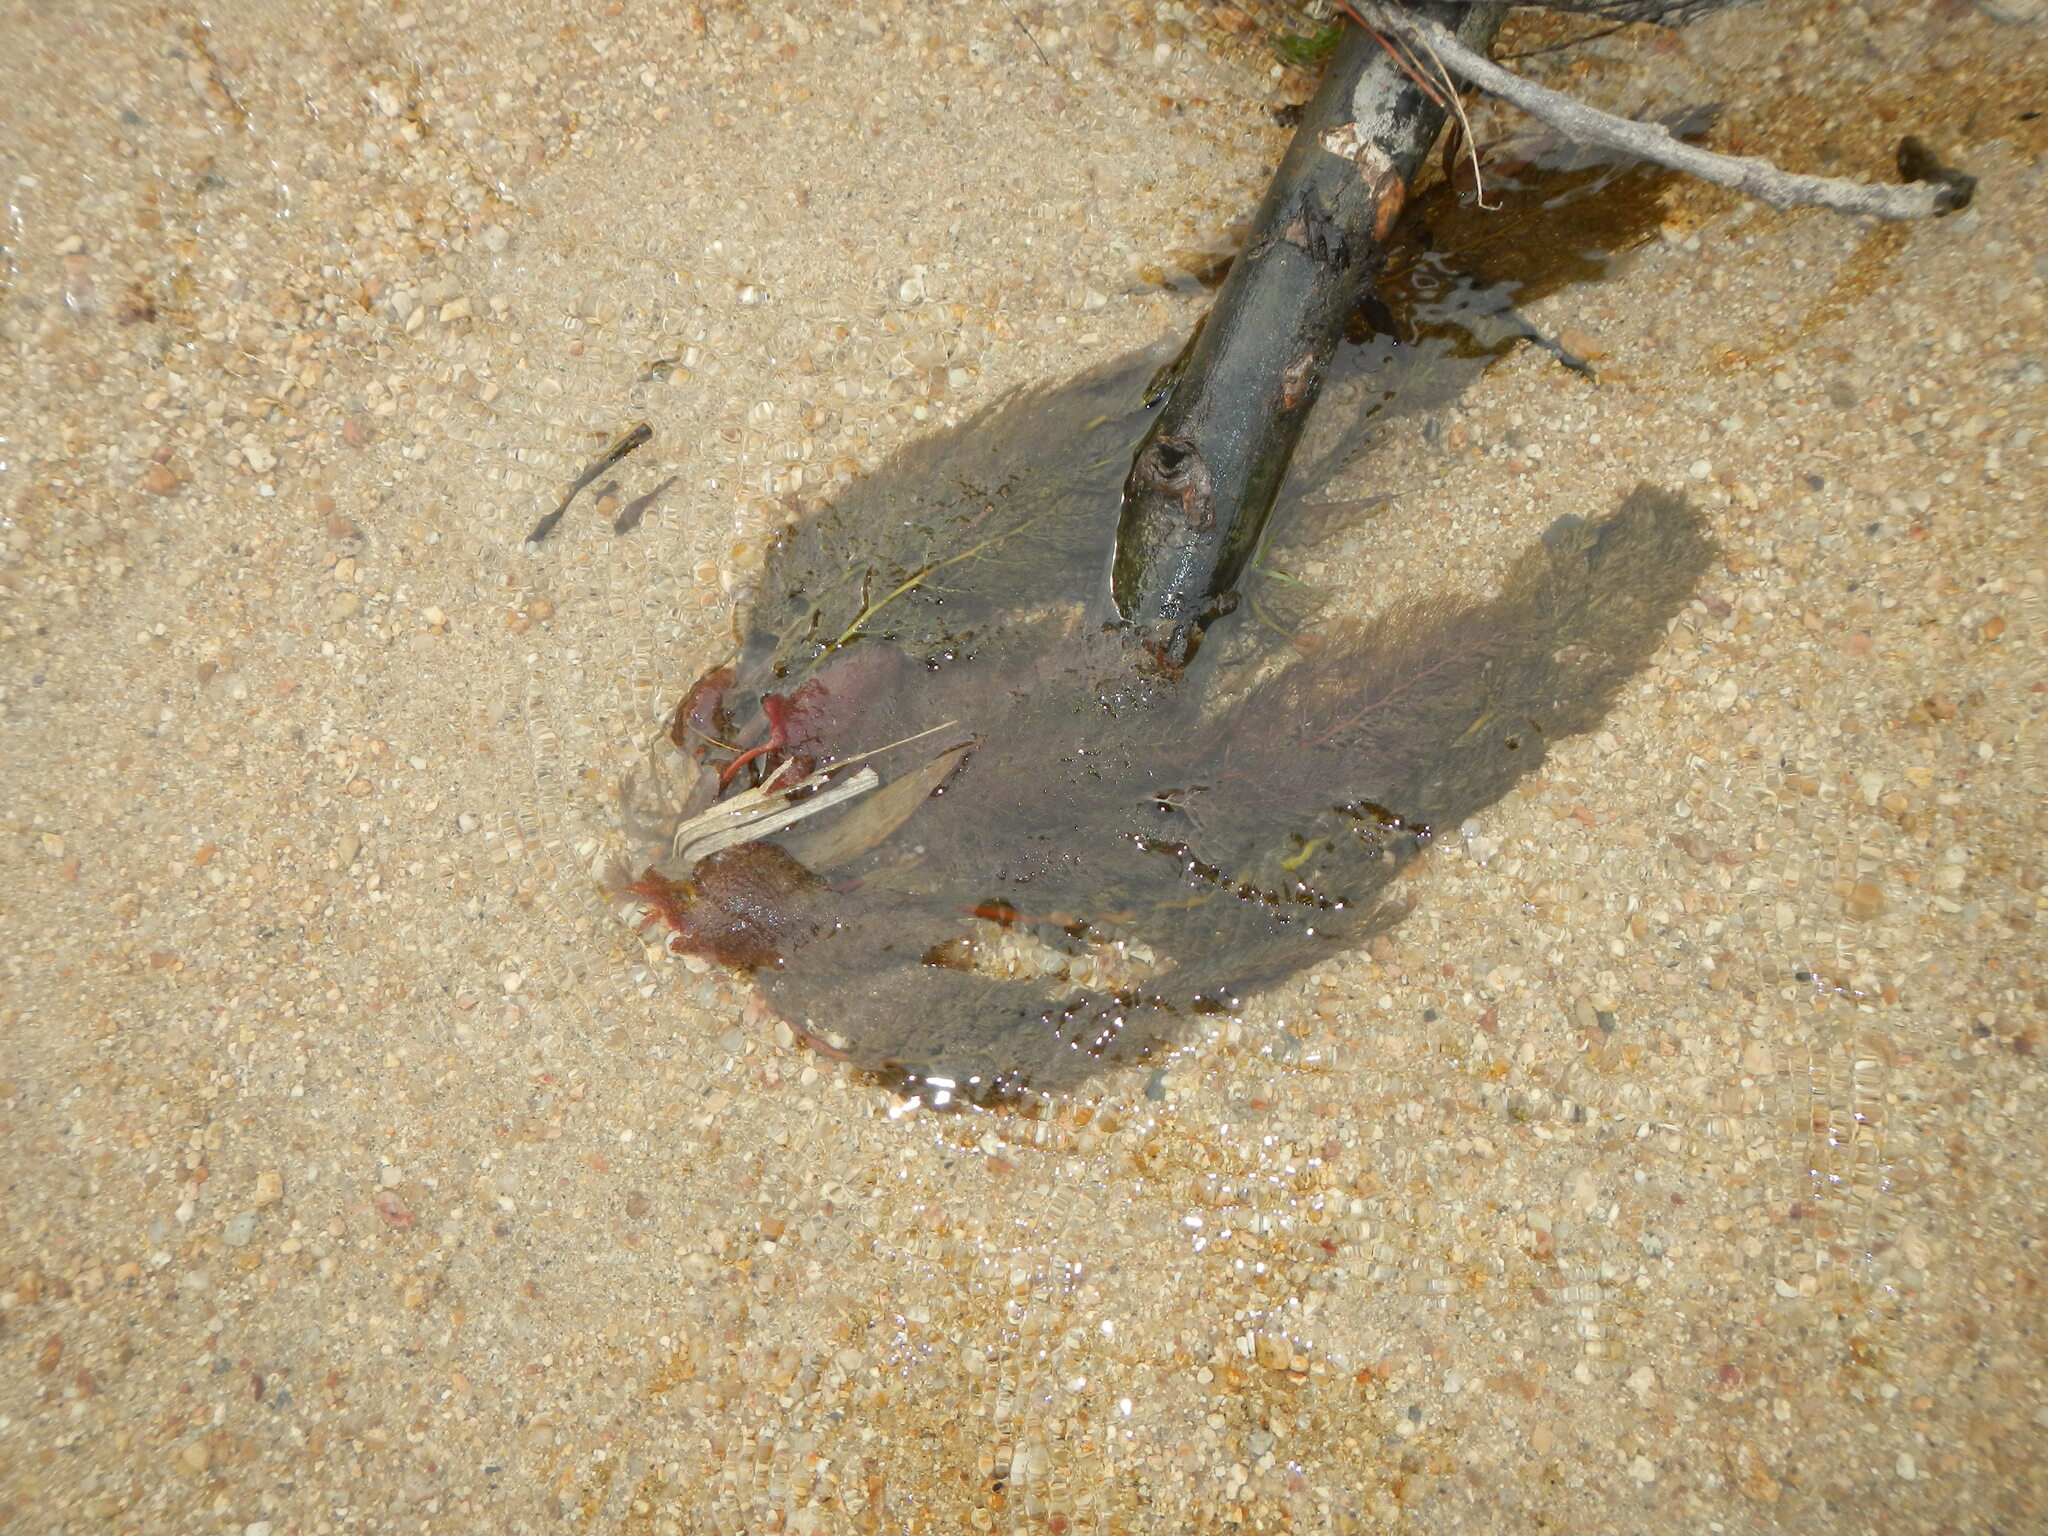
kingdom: Plantae
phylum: Tracheophyta
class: Magnoliopsida
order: Malpighiales
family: Podostemaceae
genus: Marathrum
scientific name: Marathrum foeniculaceum
